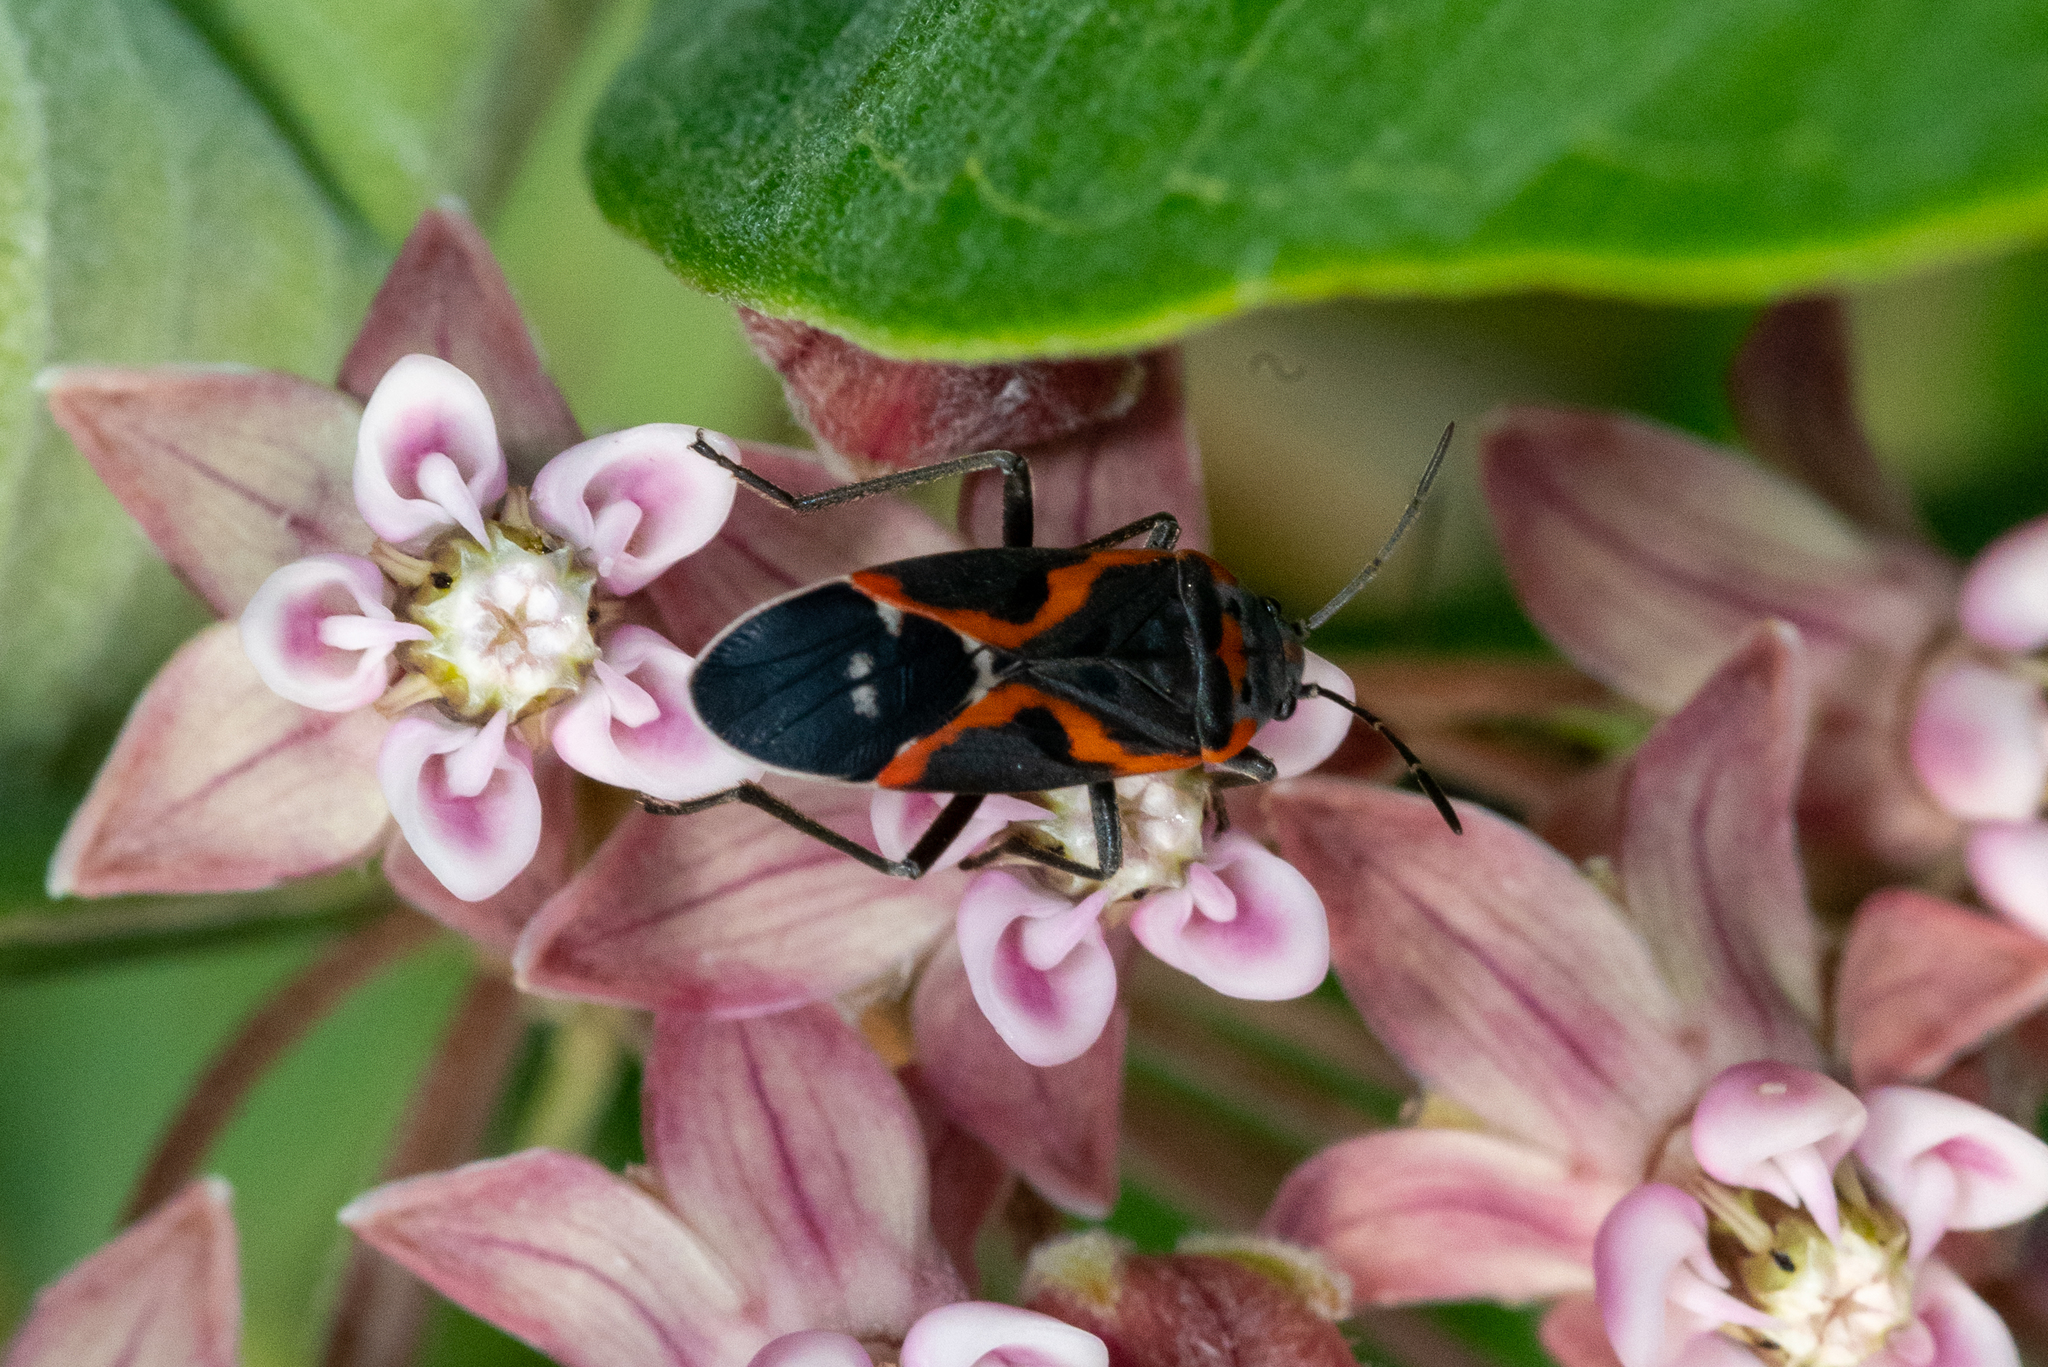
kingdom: Animalia
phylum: Arthropoda
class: Insecta
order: Hemiptera
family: Lygaeidae
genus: Lygaeus
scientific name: Lygaeus kalmii
